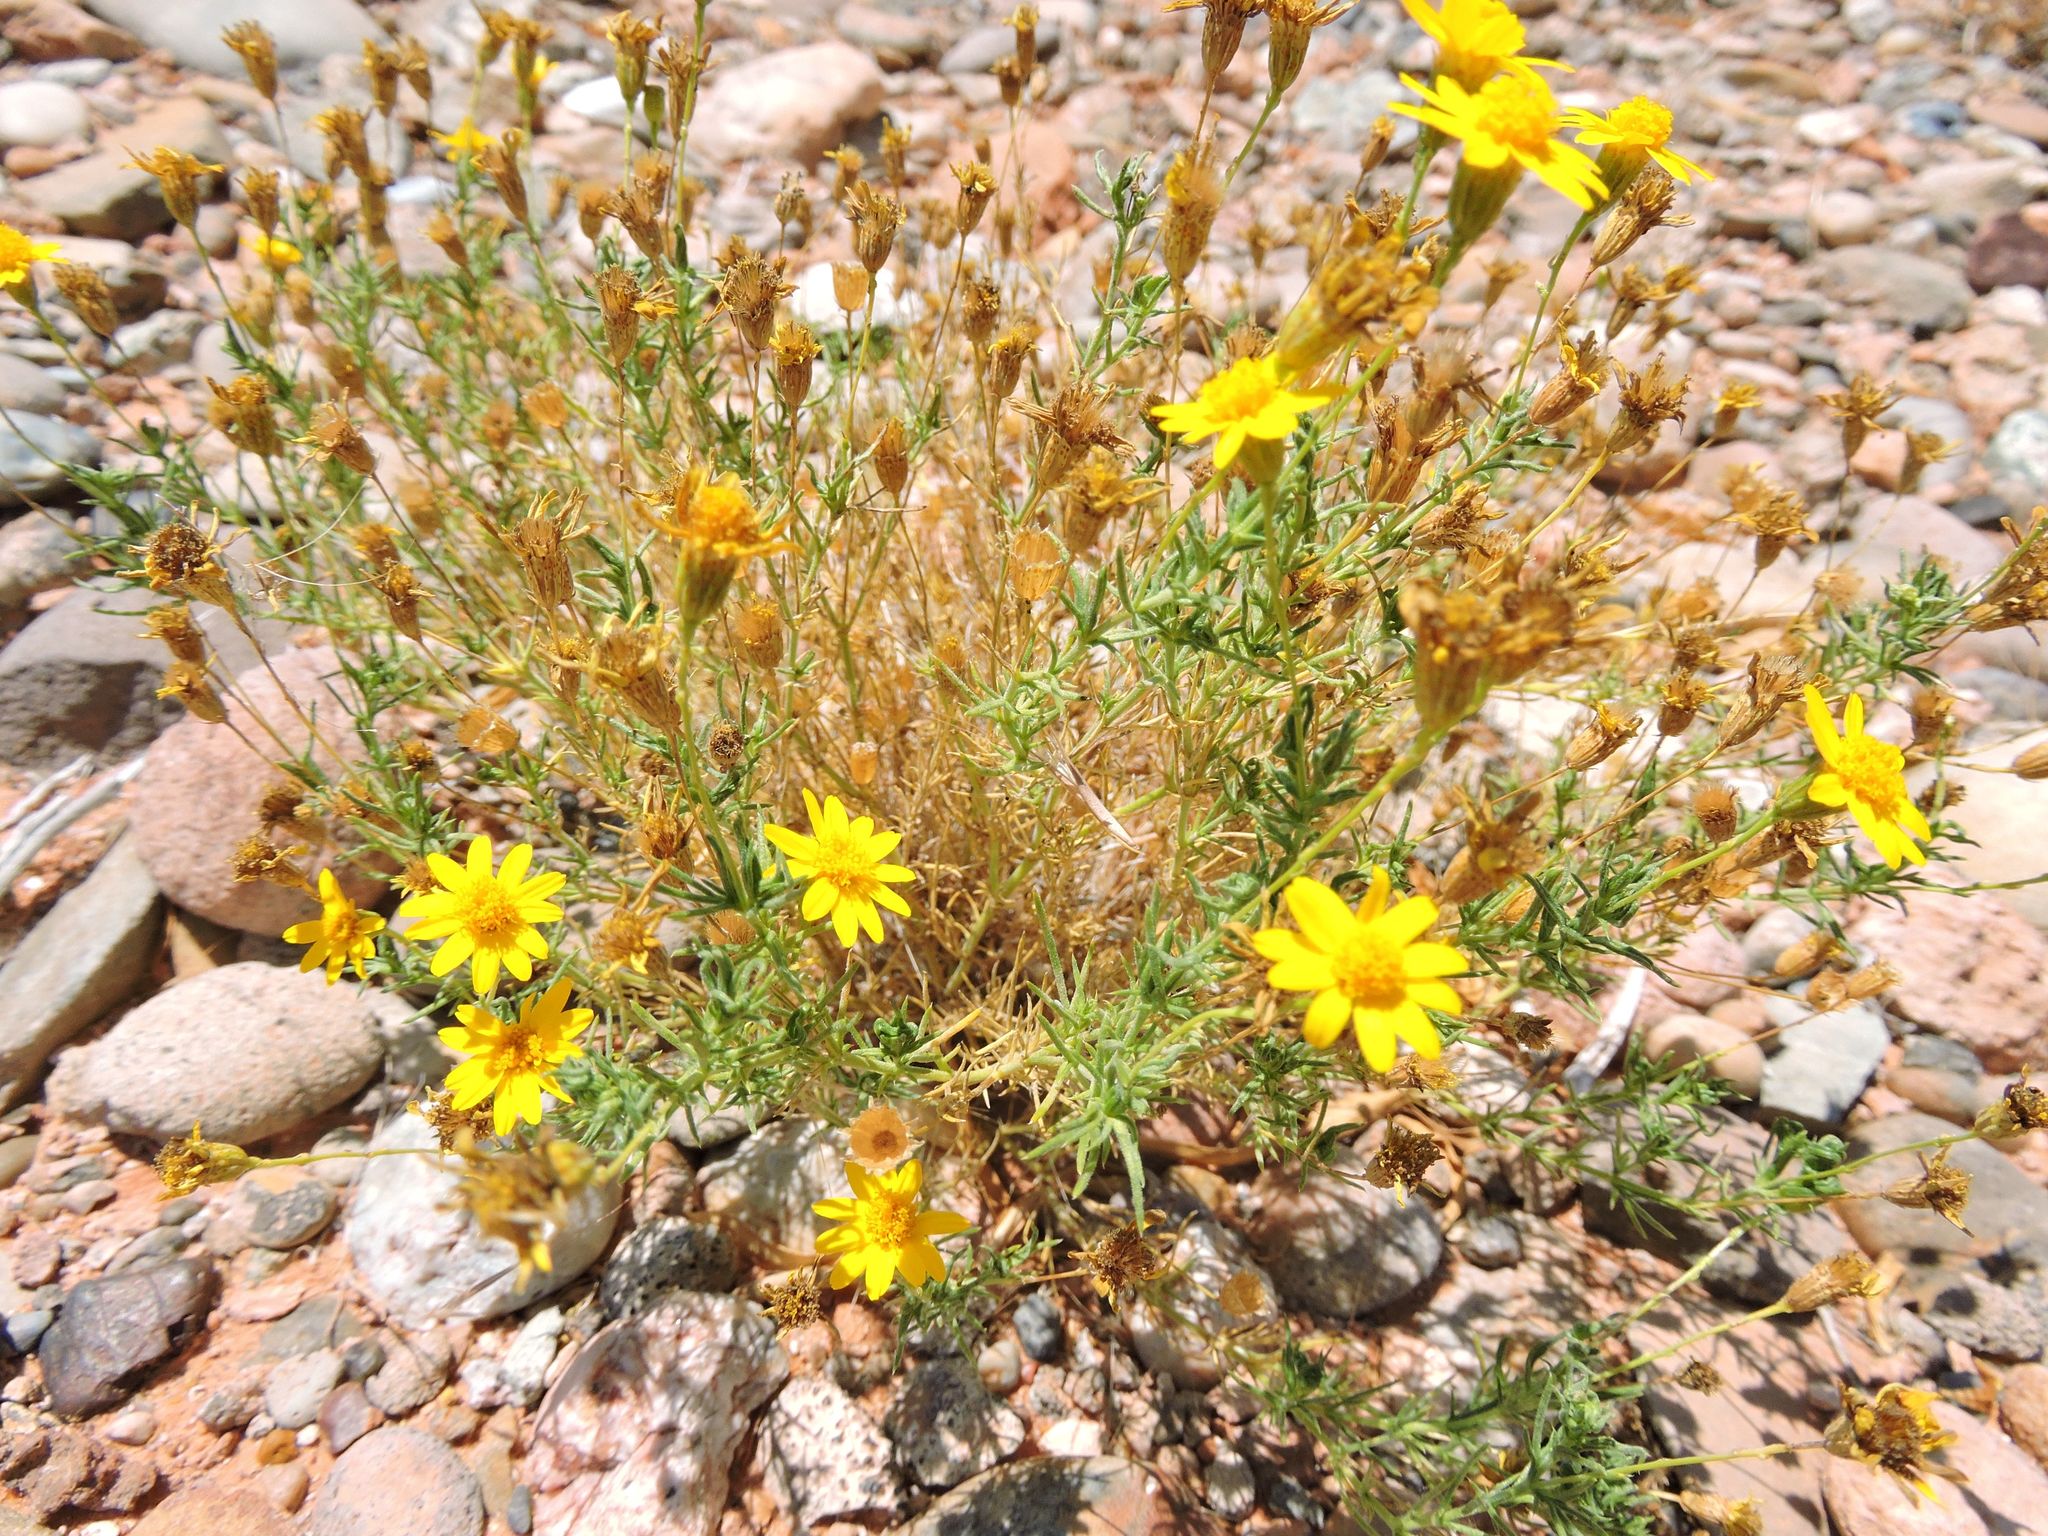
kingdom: Plantae
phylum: Tracheophyta
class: Magnoliopsida
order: Asterales
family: Asteraceae
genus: Thymophylla
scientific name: Thymophylla pentachaeta
